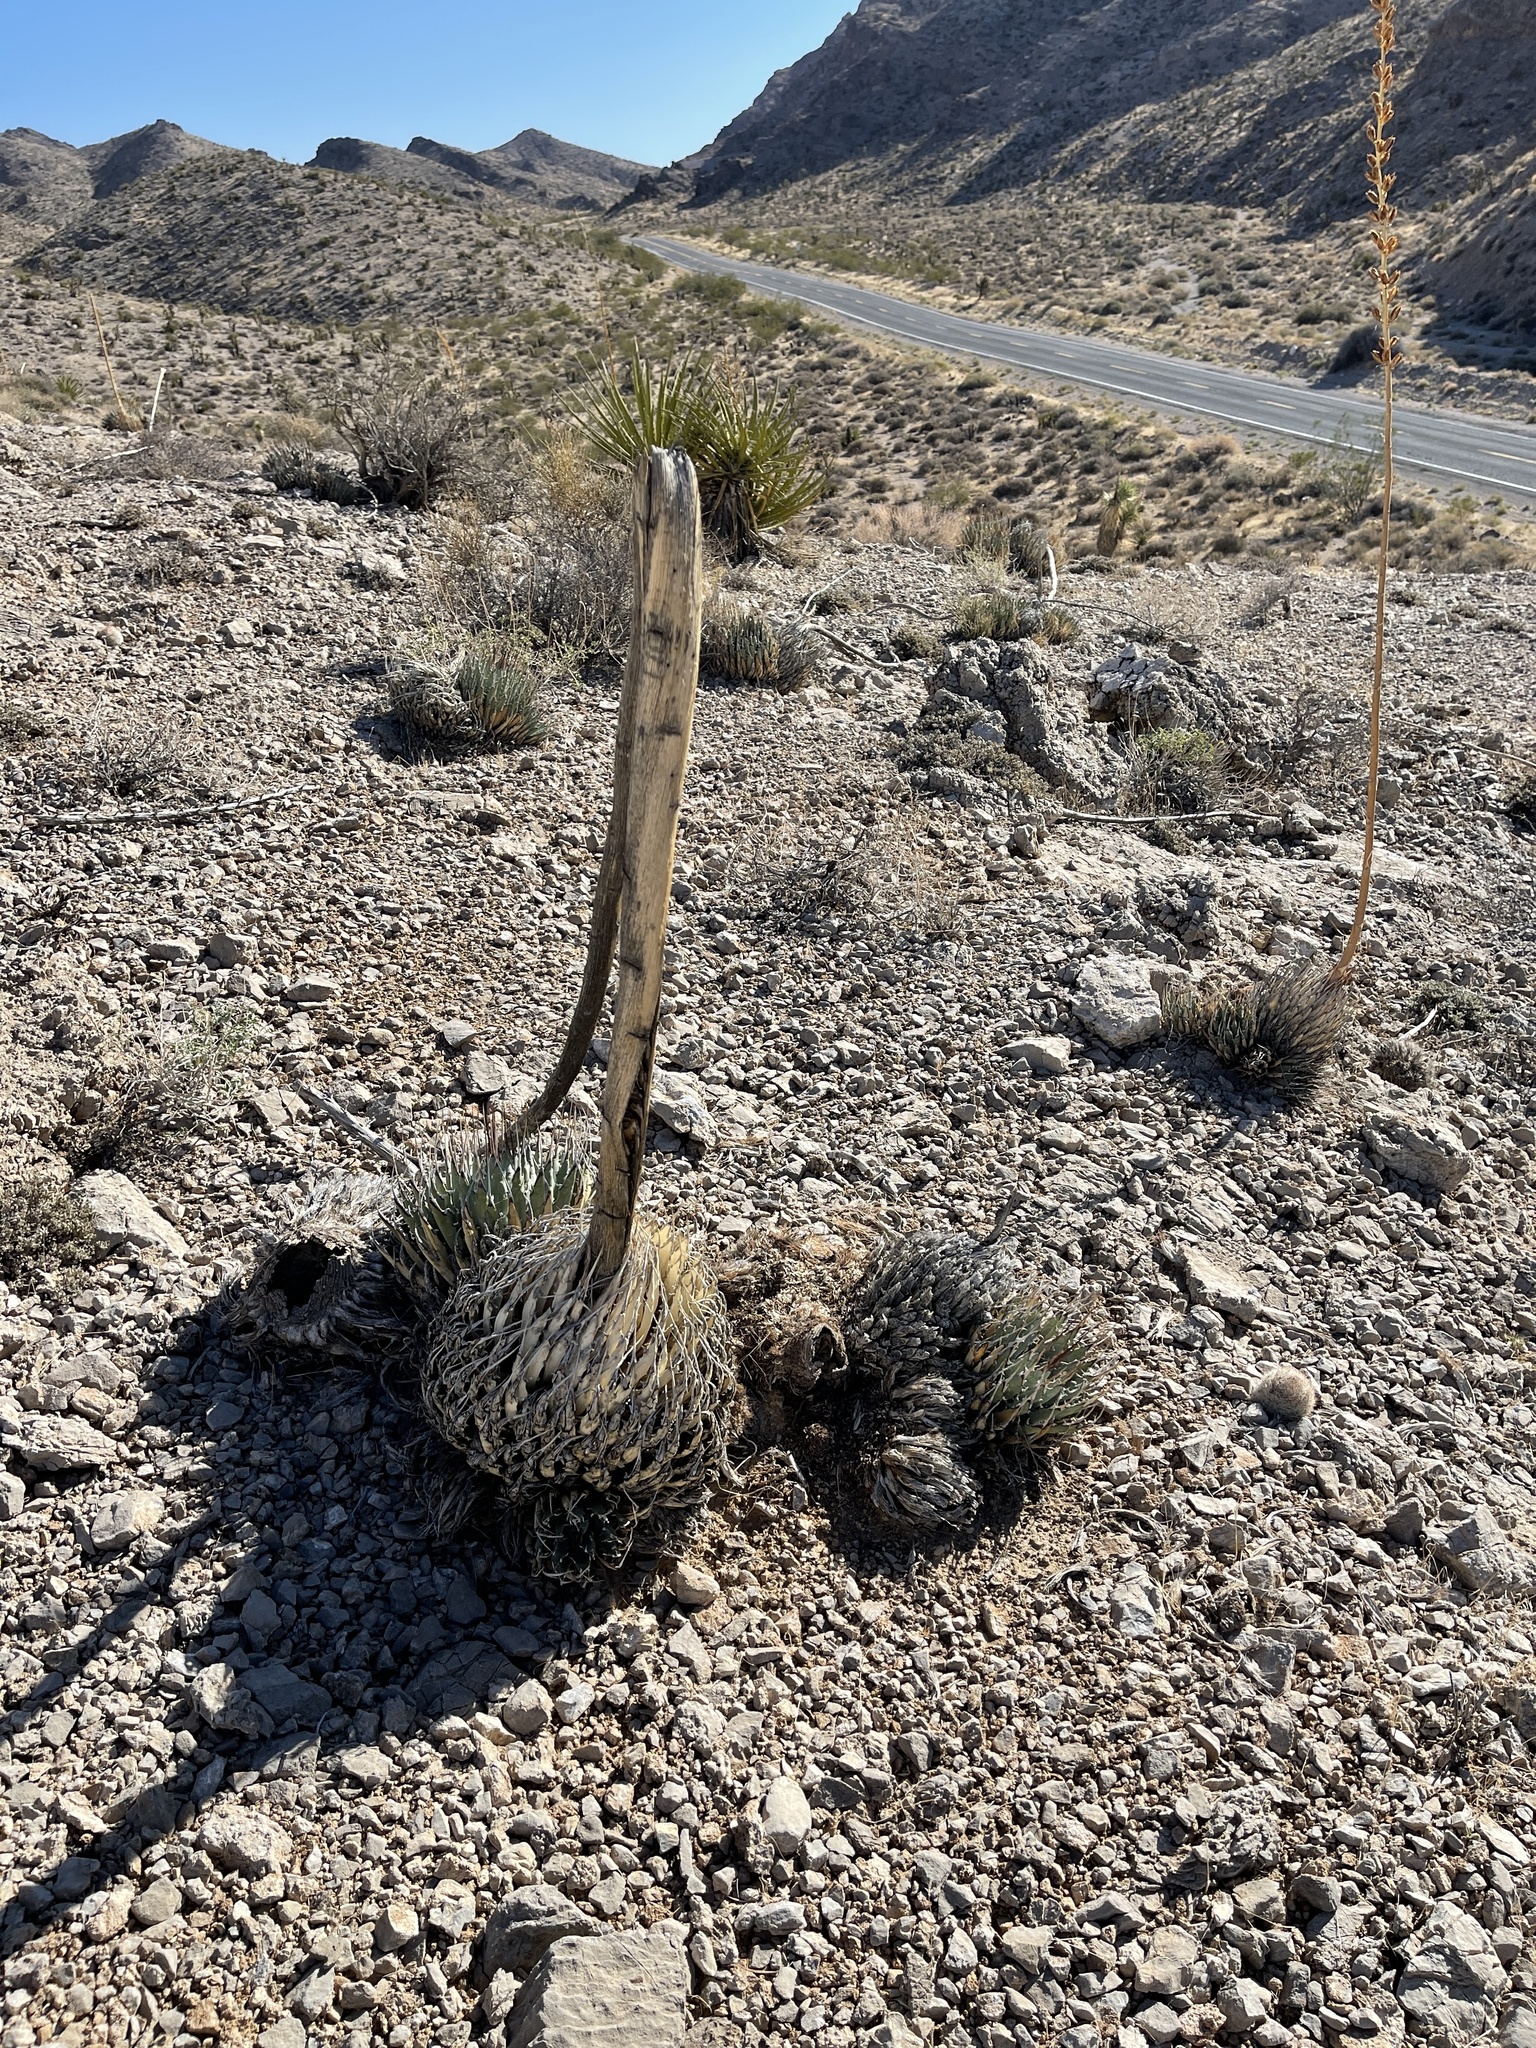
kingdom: Plantae
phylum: Tracheophyta
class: Liliopsida
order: Asparagales
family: Asparagaceae
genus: Agave
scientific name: Agave utahensis
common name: Utah agave
